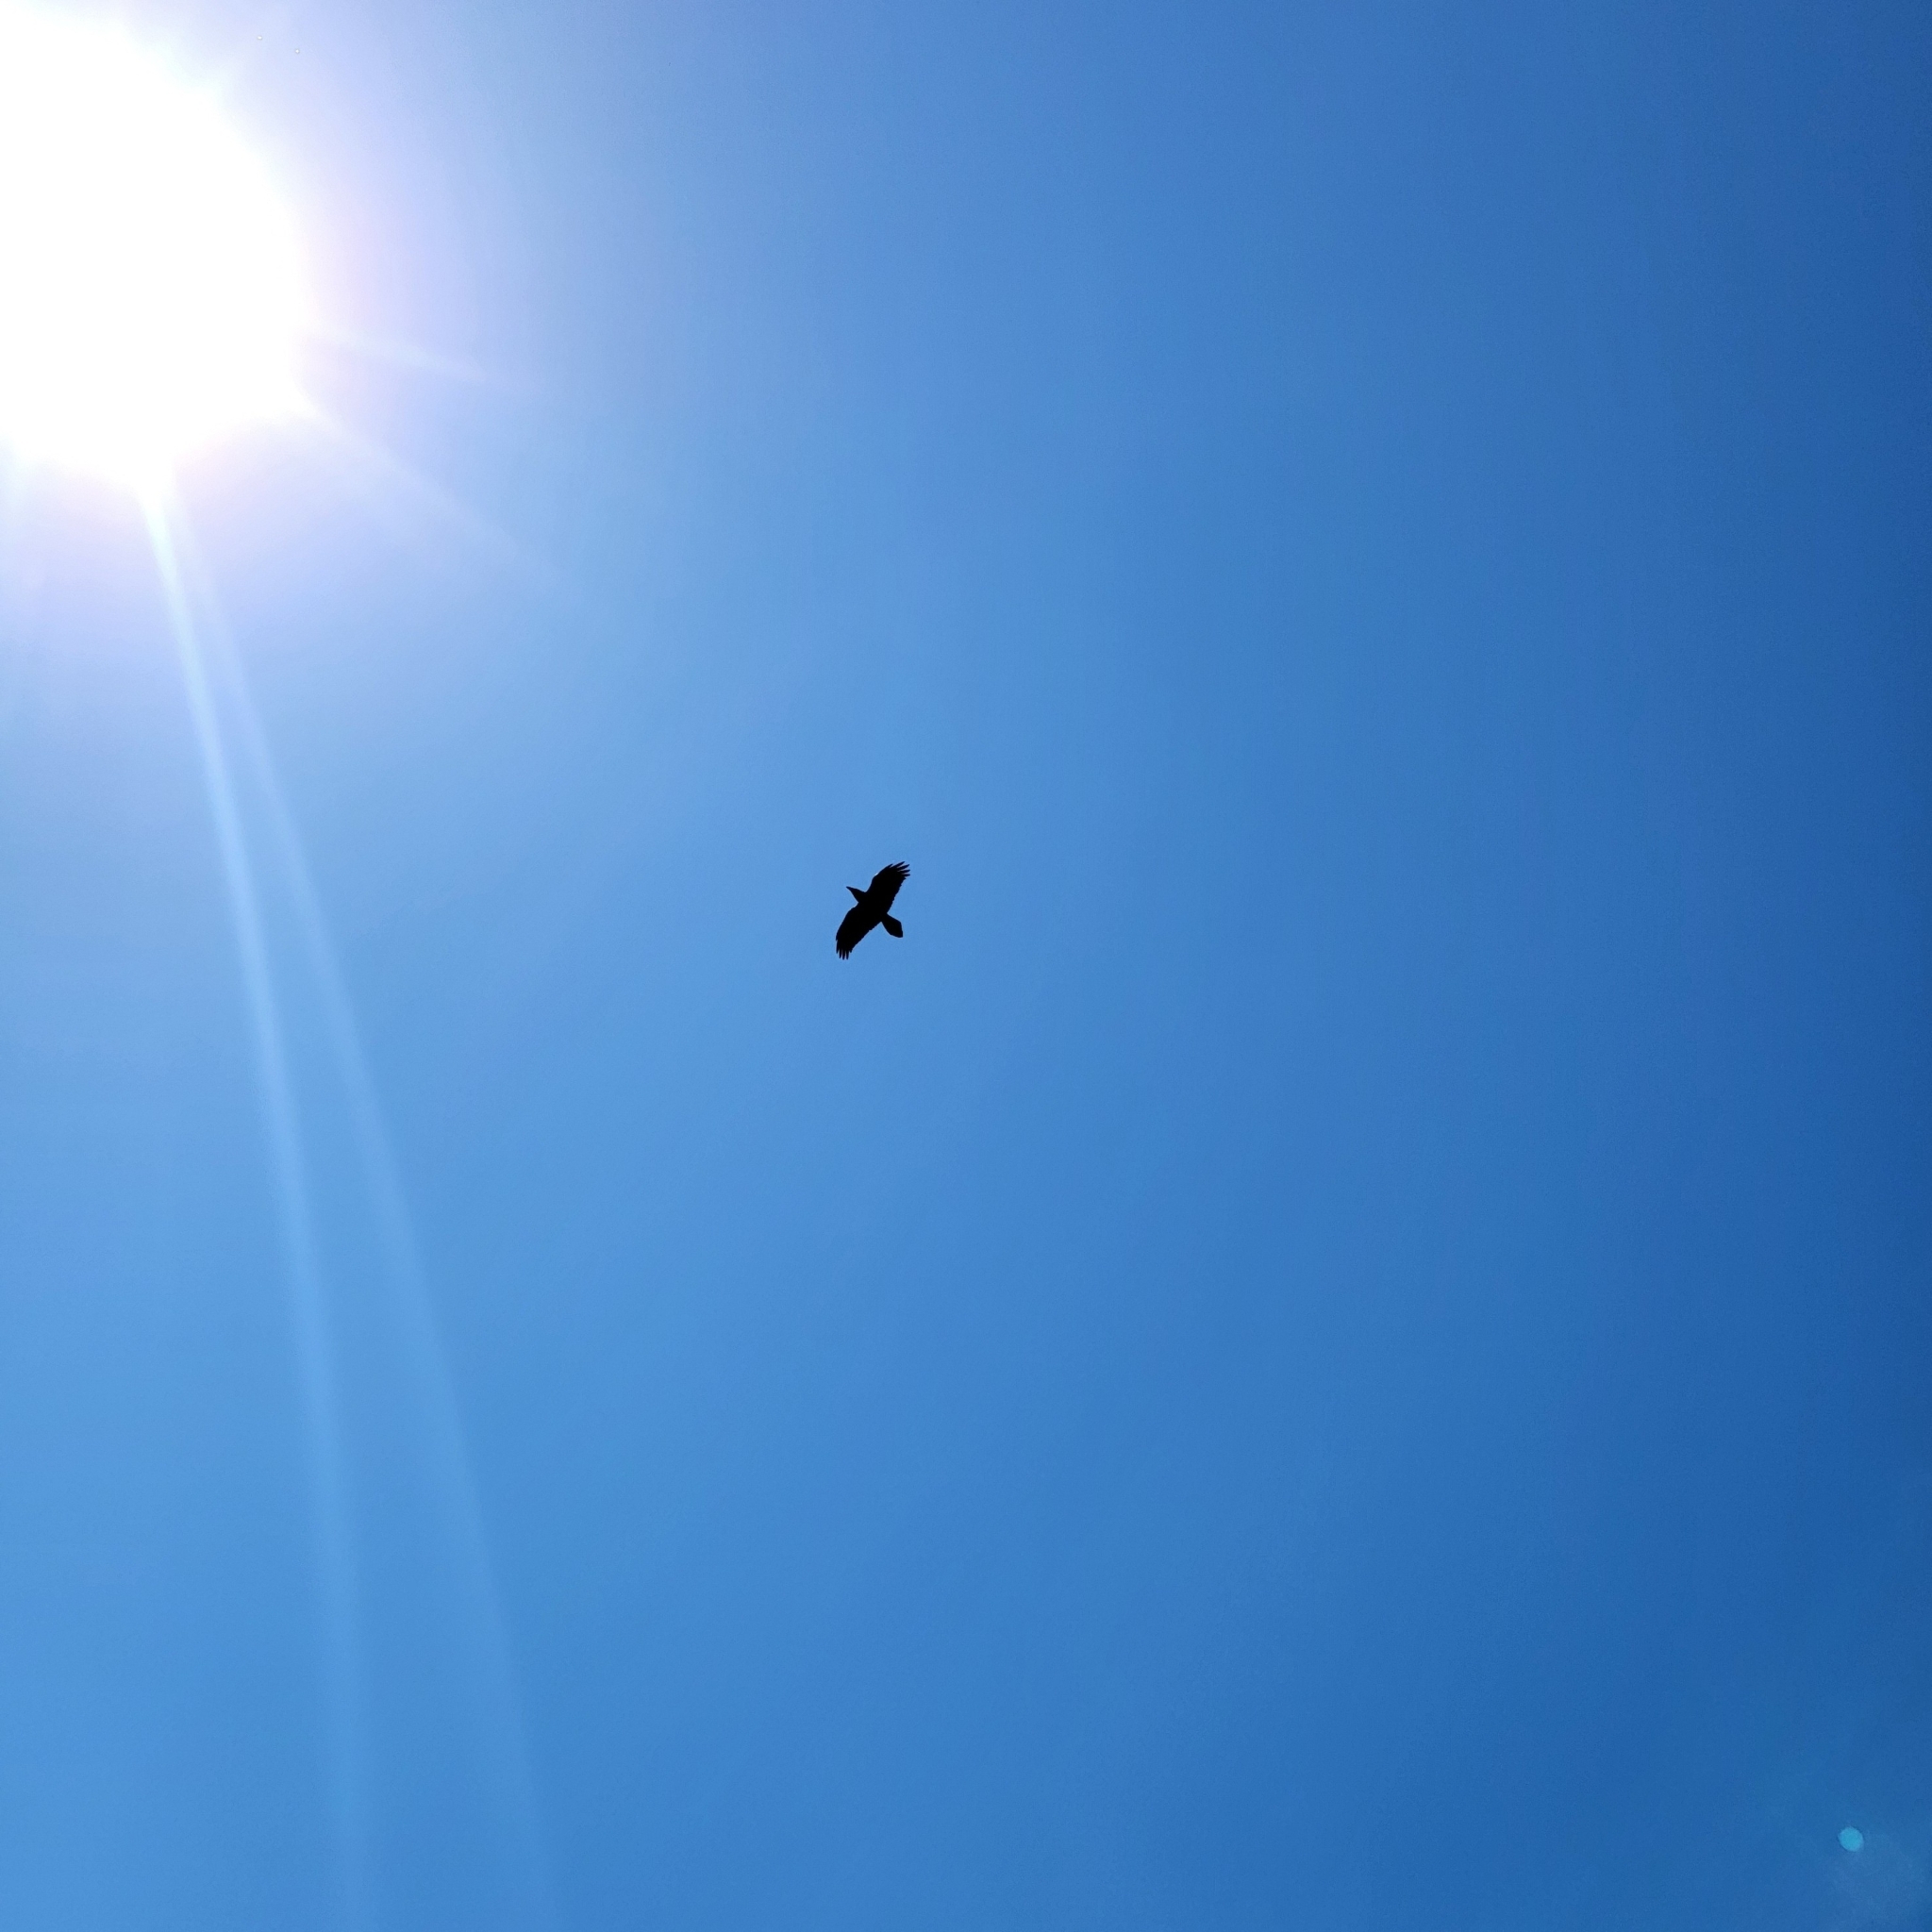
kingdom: Animalia
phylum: Chordata
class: Aves
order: Passeriformes
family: Corvidae
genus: Corvus
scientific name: Corvus corax
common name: Common raven
